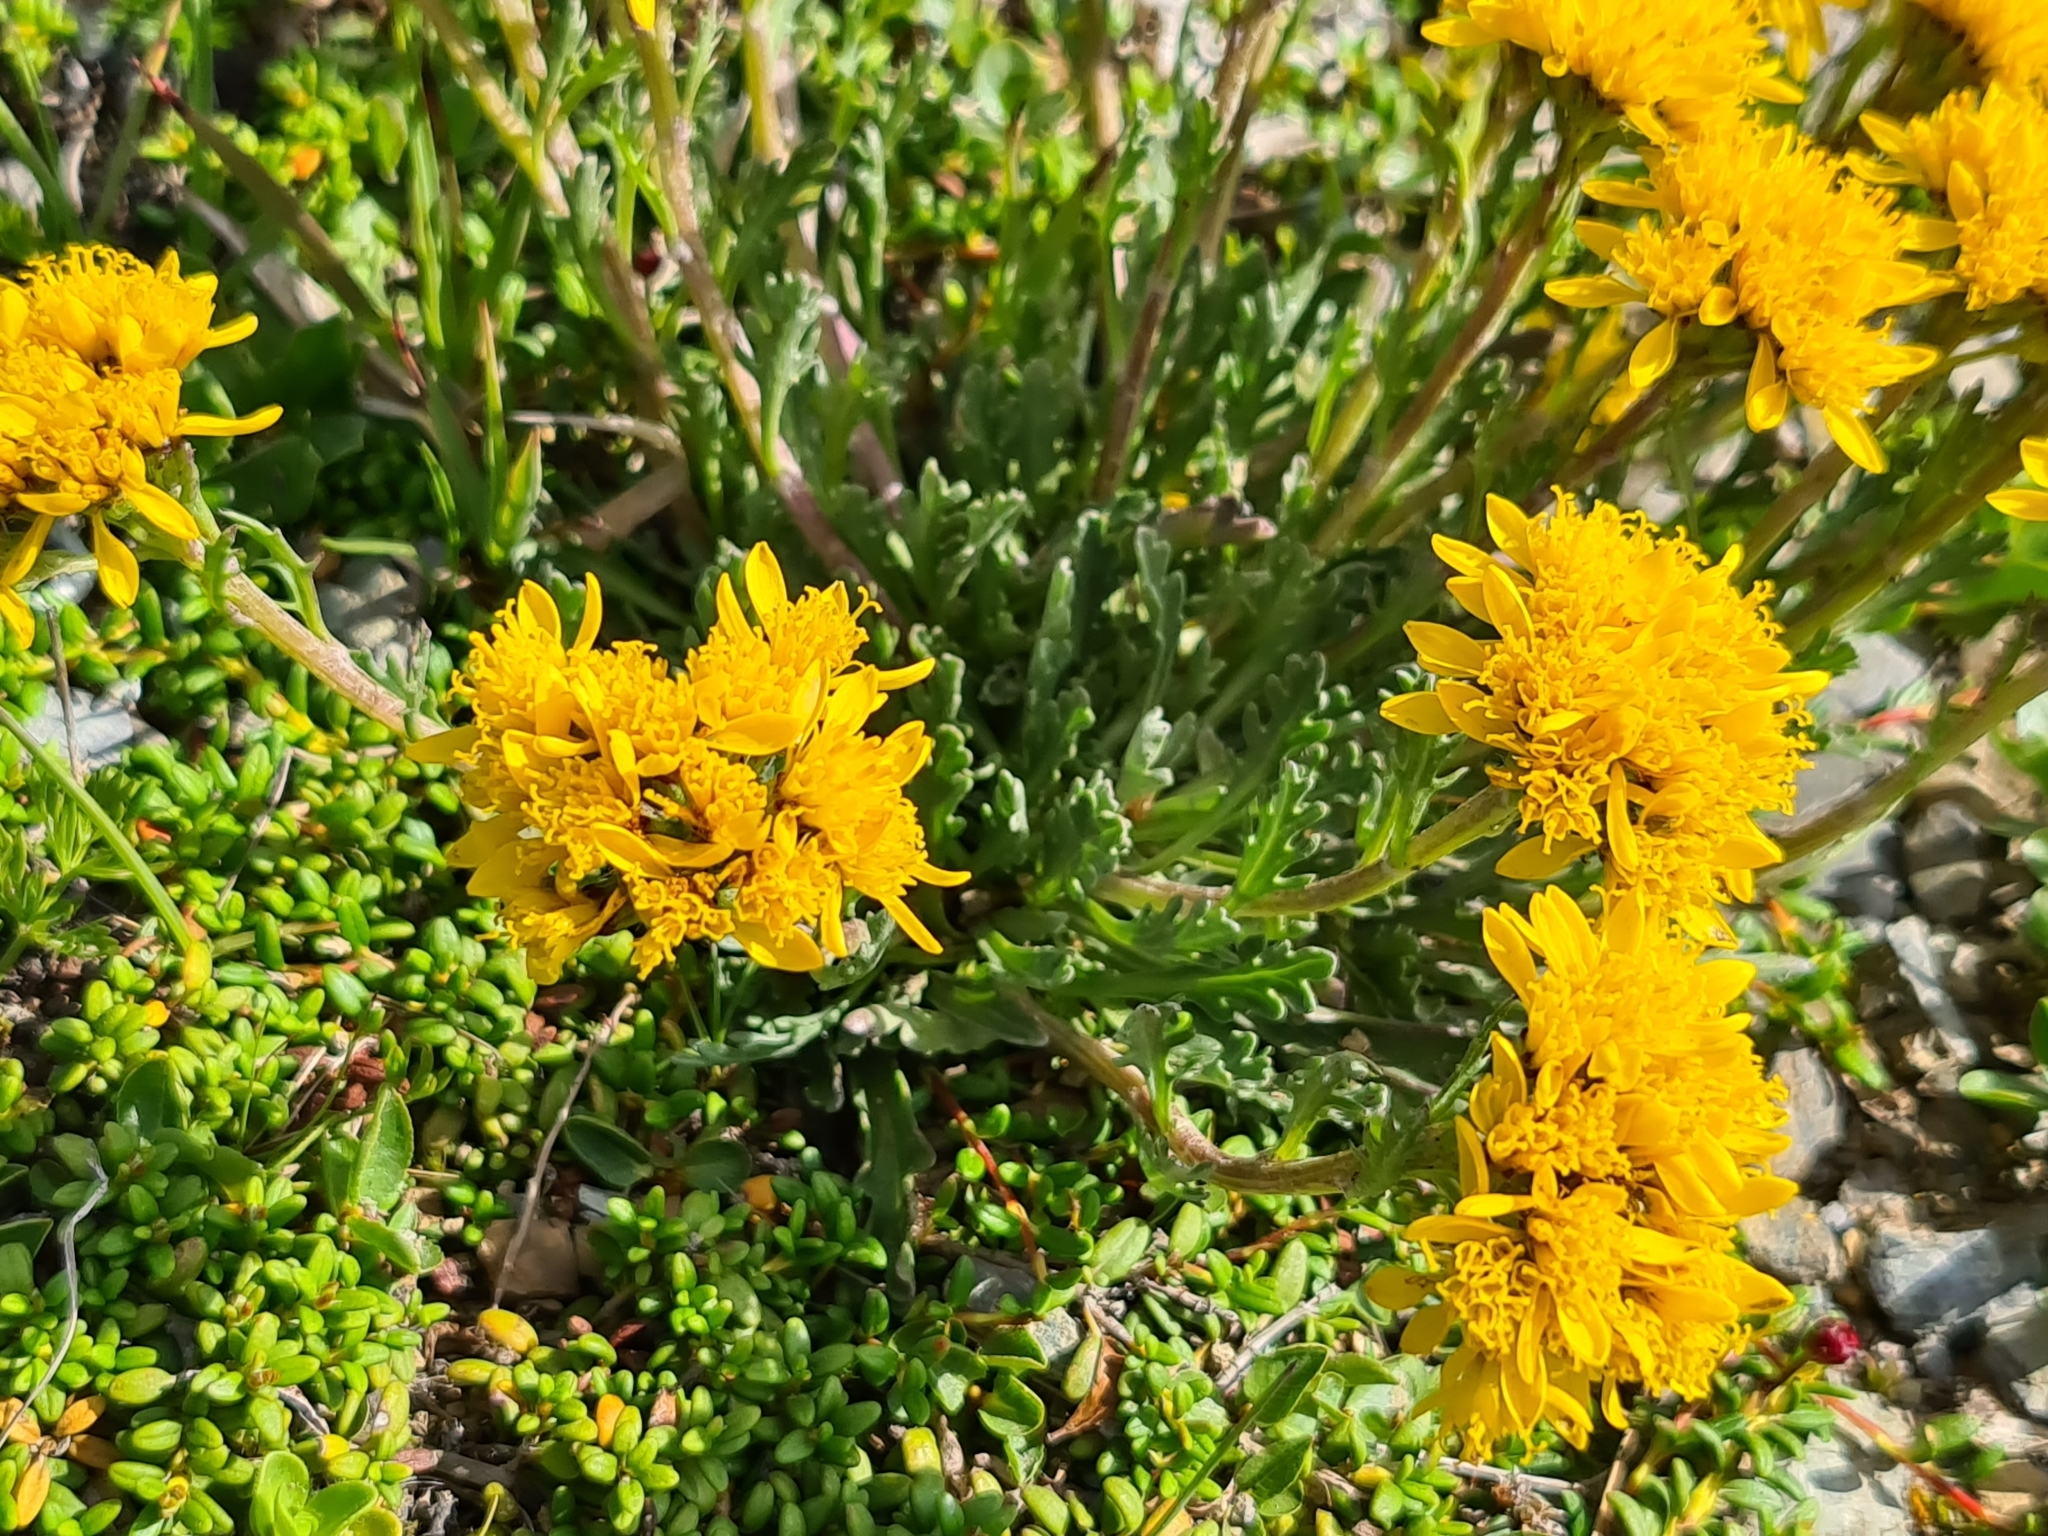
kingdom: Plantae
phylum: Tracheophyta
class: Magnoliopsida
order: Asterales
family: Asteraceae
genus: Jacobaea
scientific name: Jacobaea carniolica
